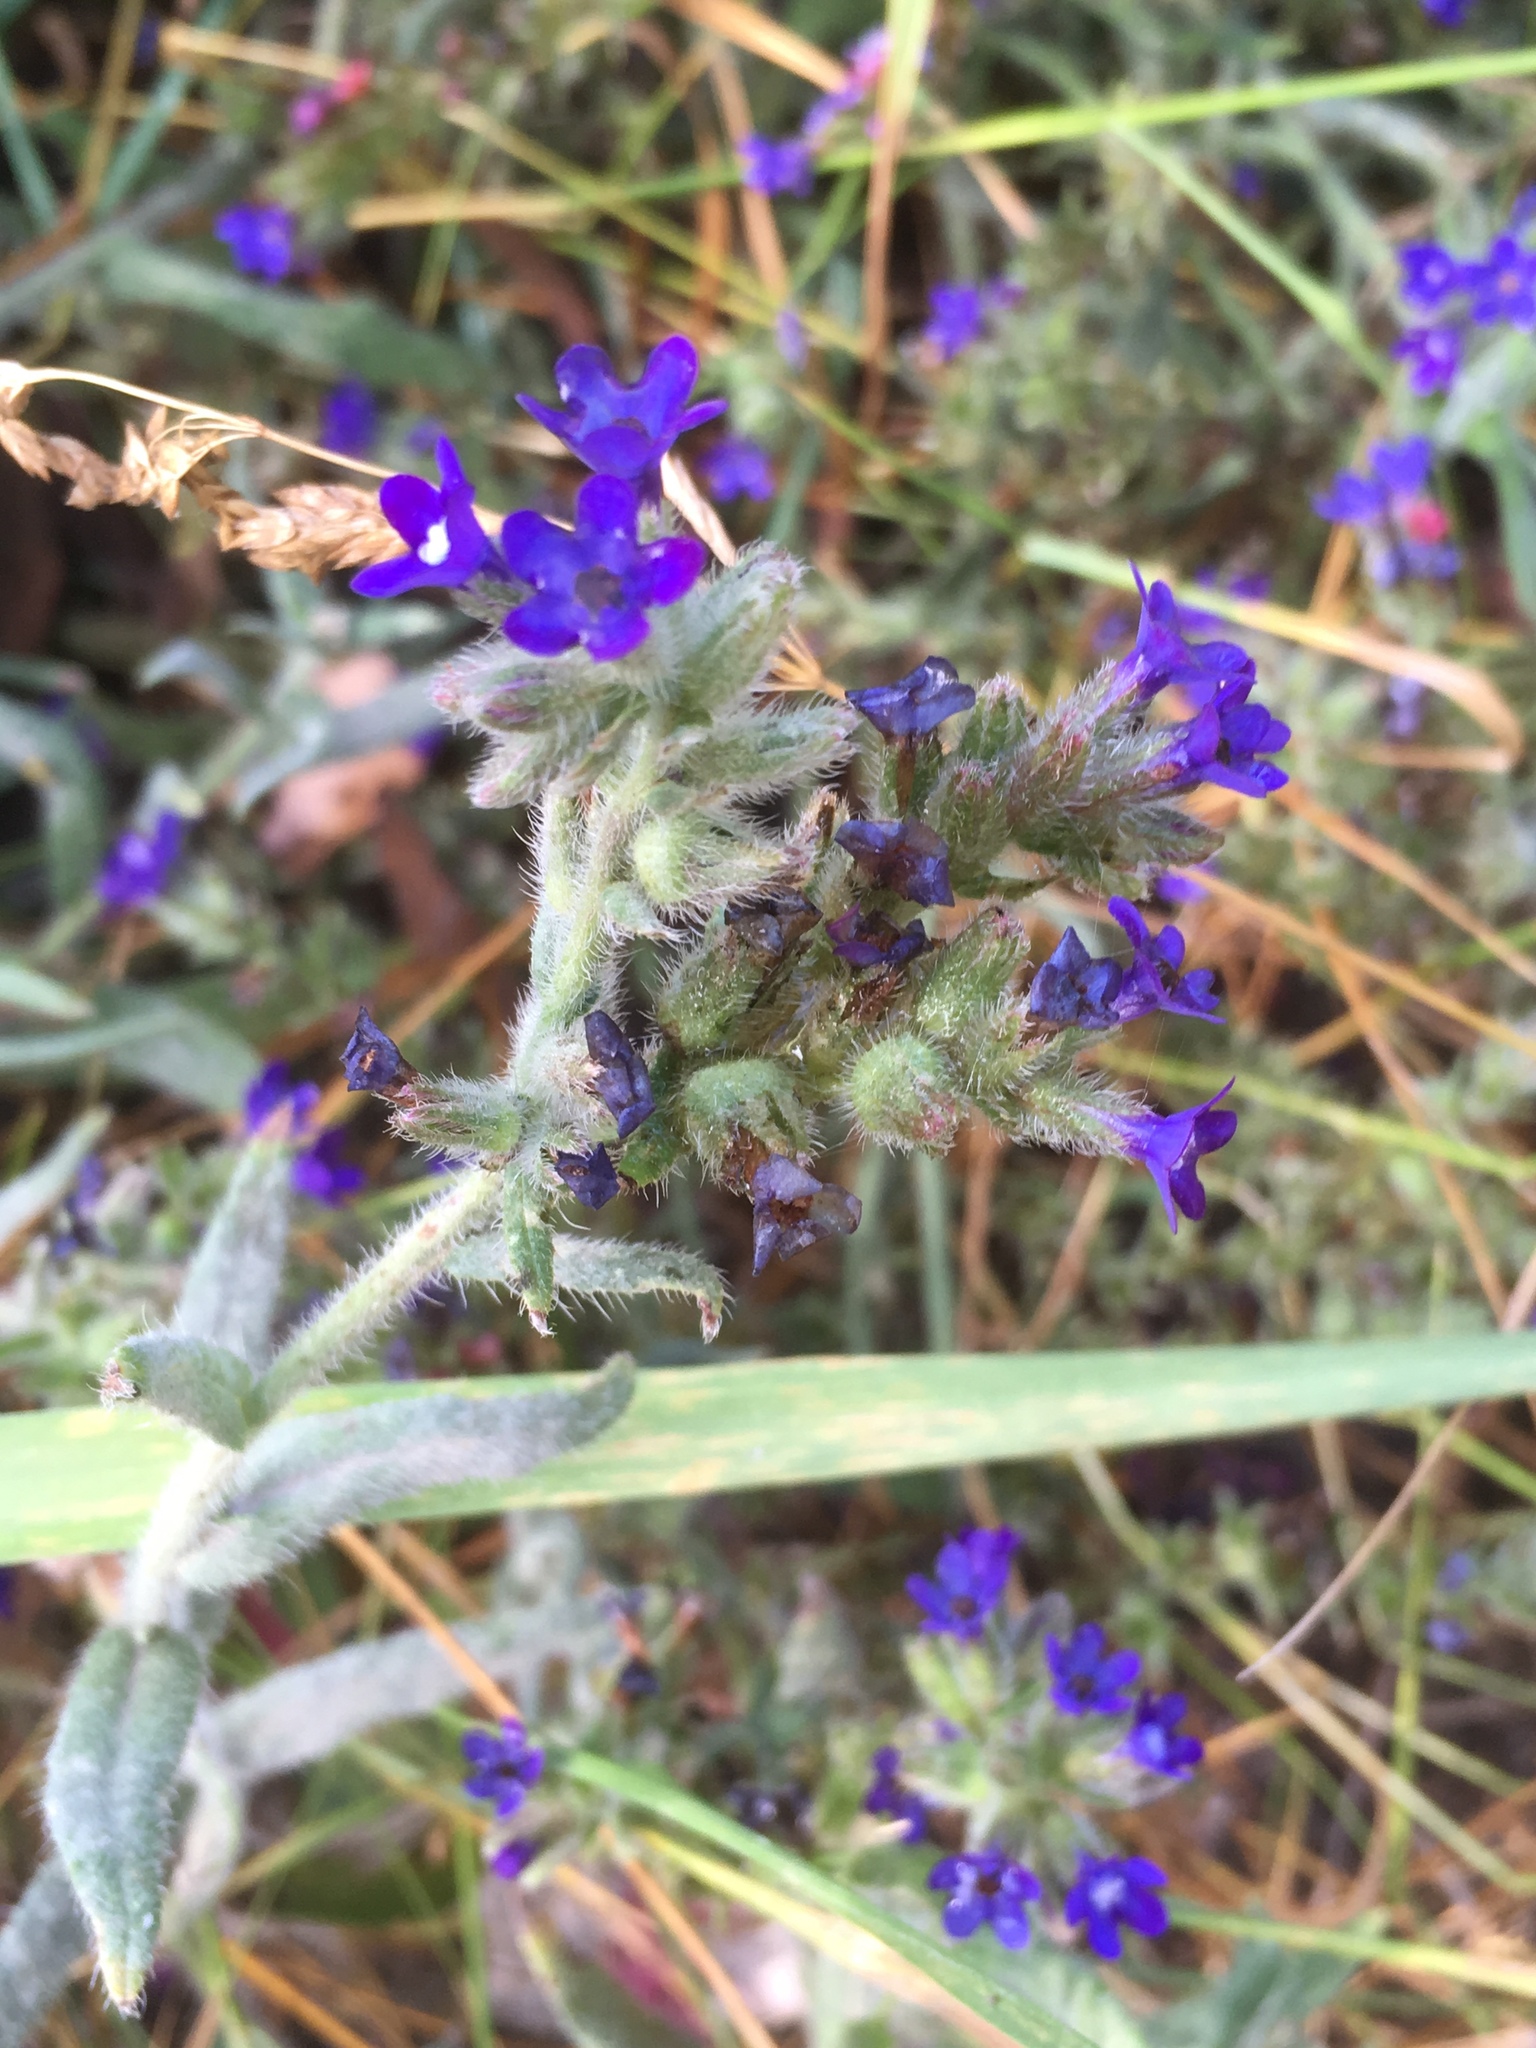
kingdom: Plantae
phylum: Tracheophyta
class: Magnoliopsida
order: Boraginales
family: Boraginaceae
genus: Anchusa
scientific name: Anchusa officinalis
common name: Alkanet
